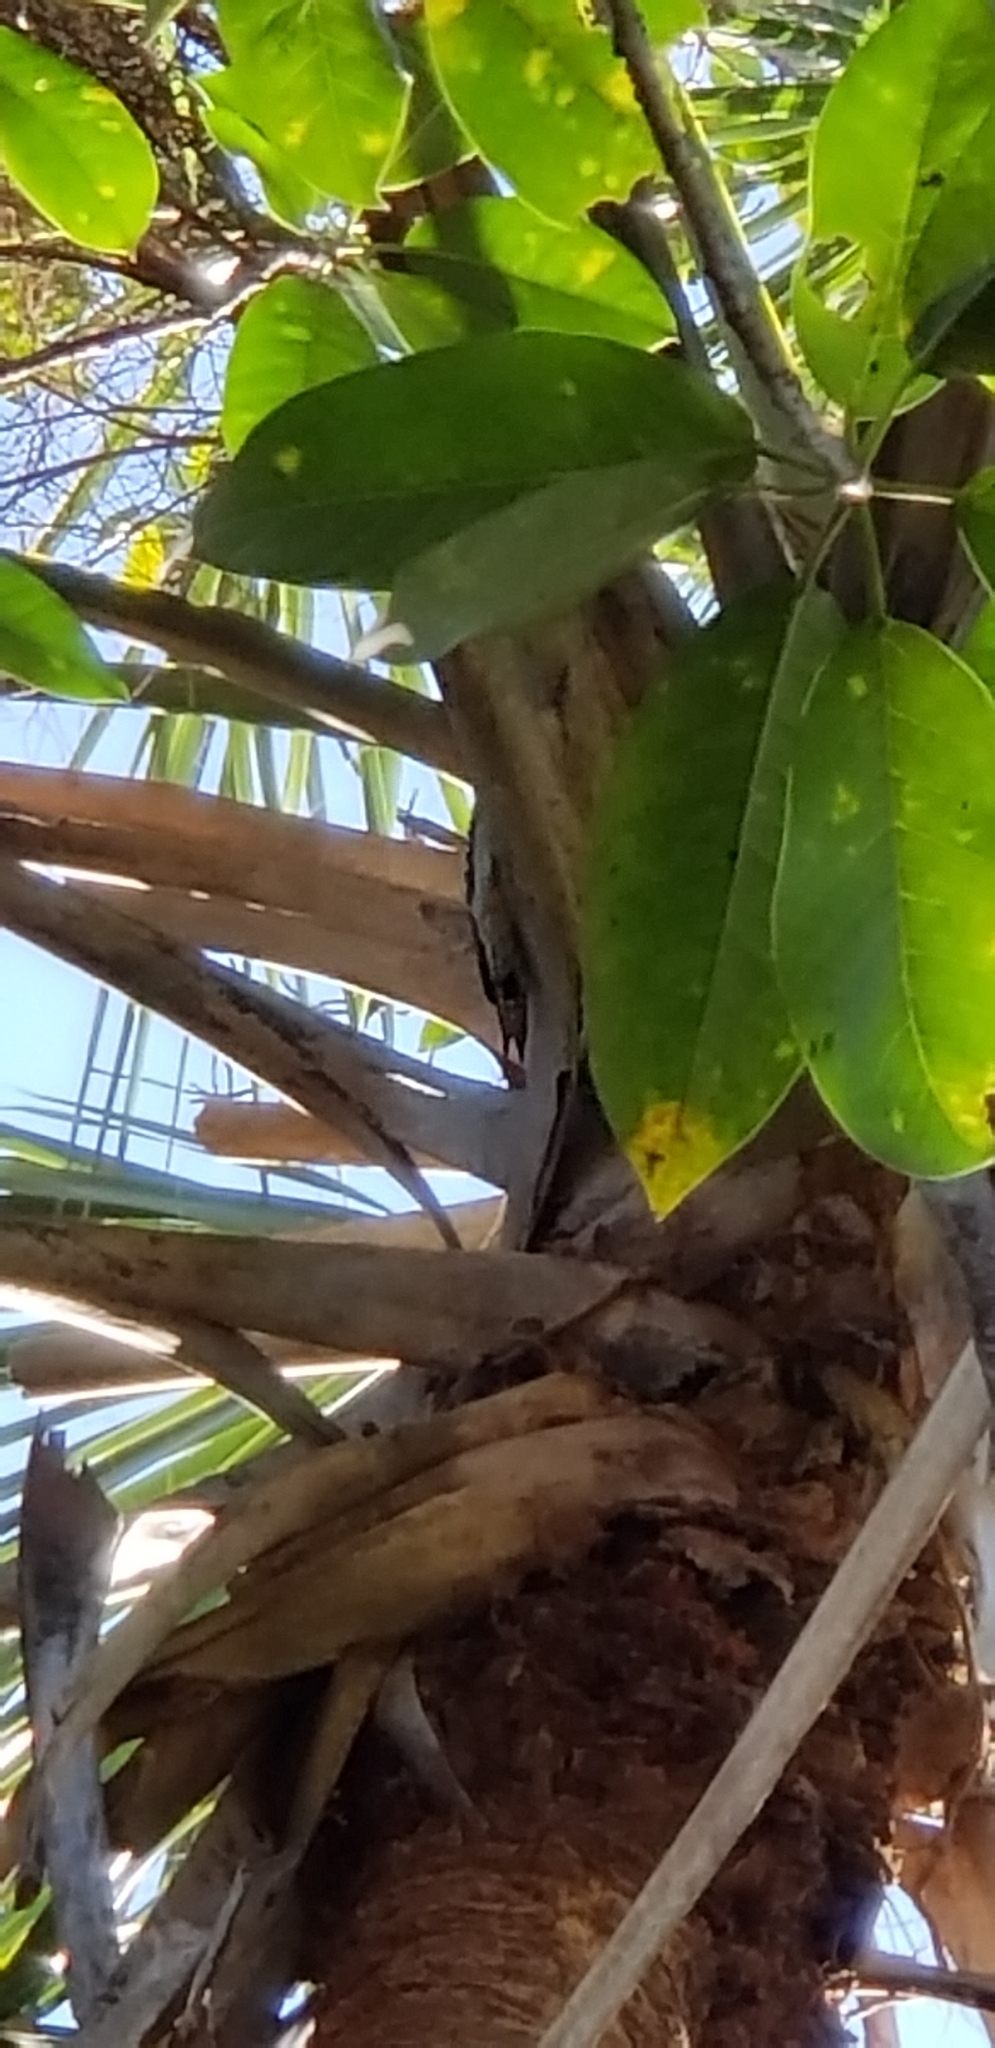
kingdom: Animalia
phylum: Chordata
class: Aves
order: Piciformes
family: Picidae
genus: Melanerpes
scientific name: Melanerpes carolinus
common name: Red-bellied woodpecker
